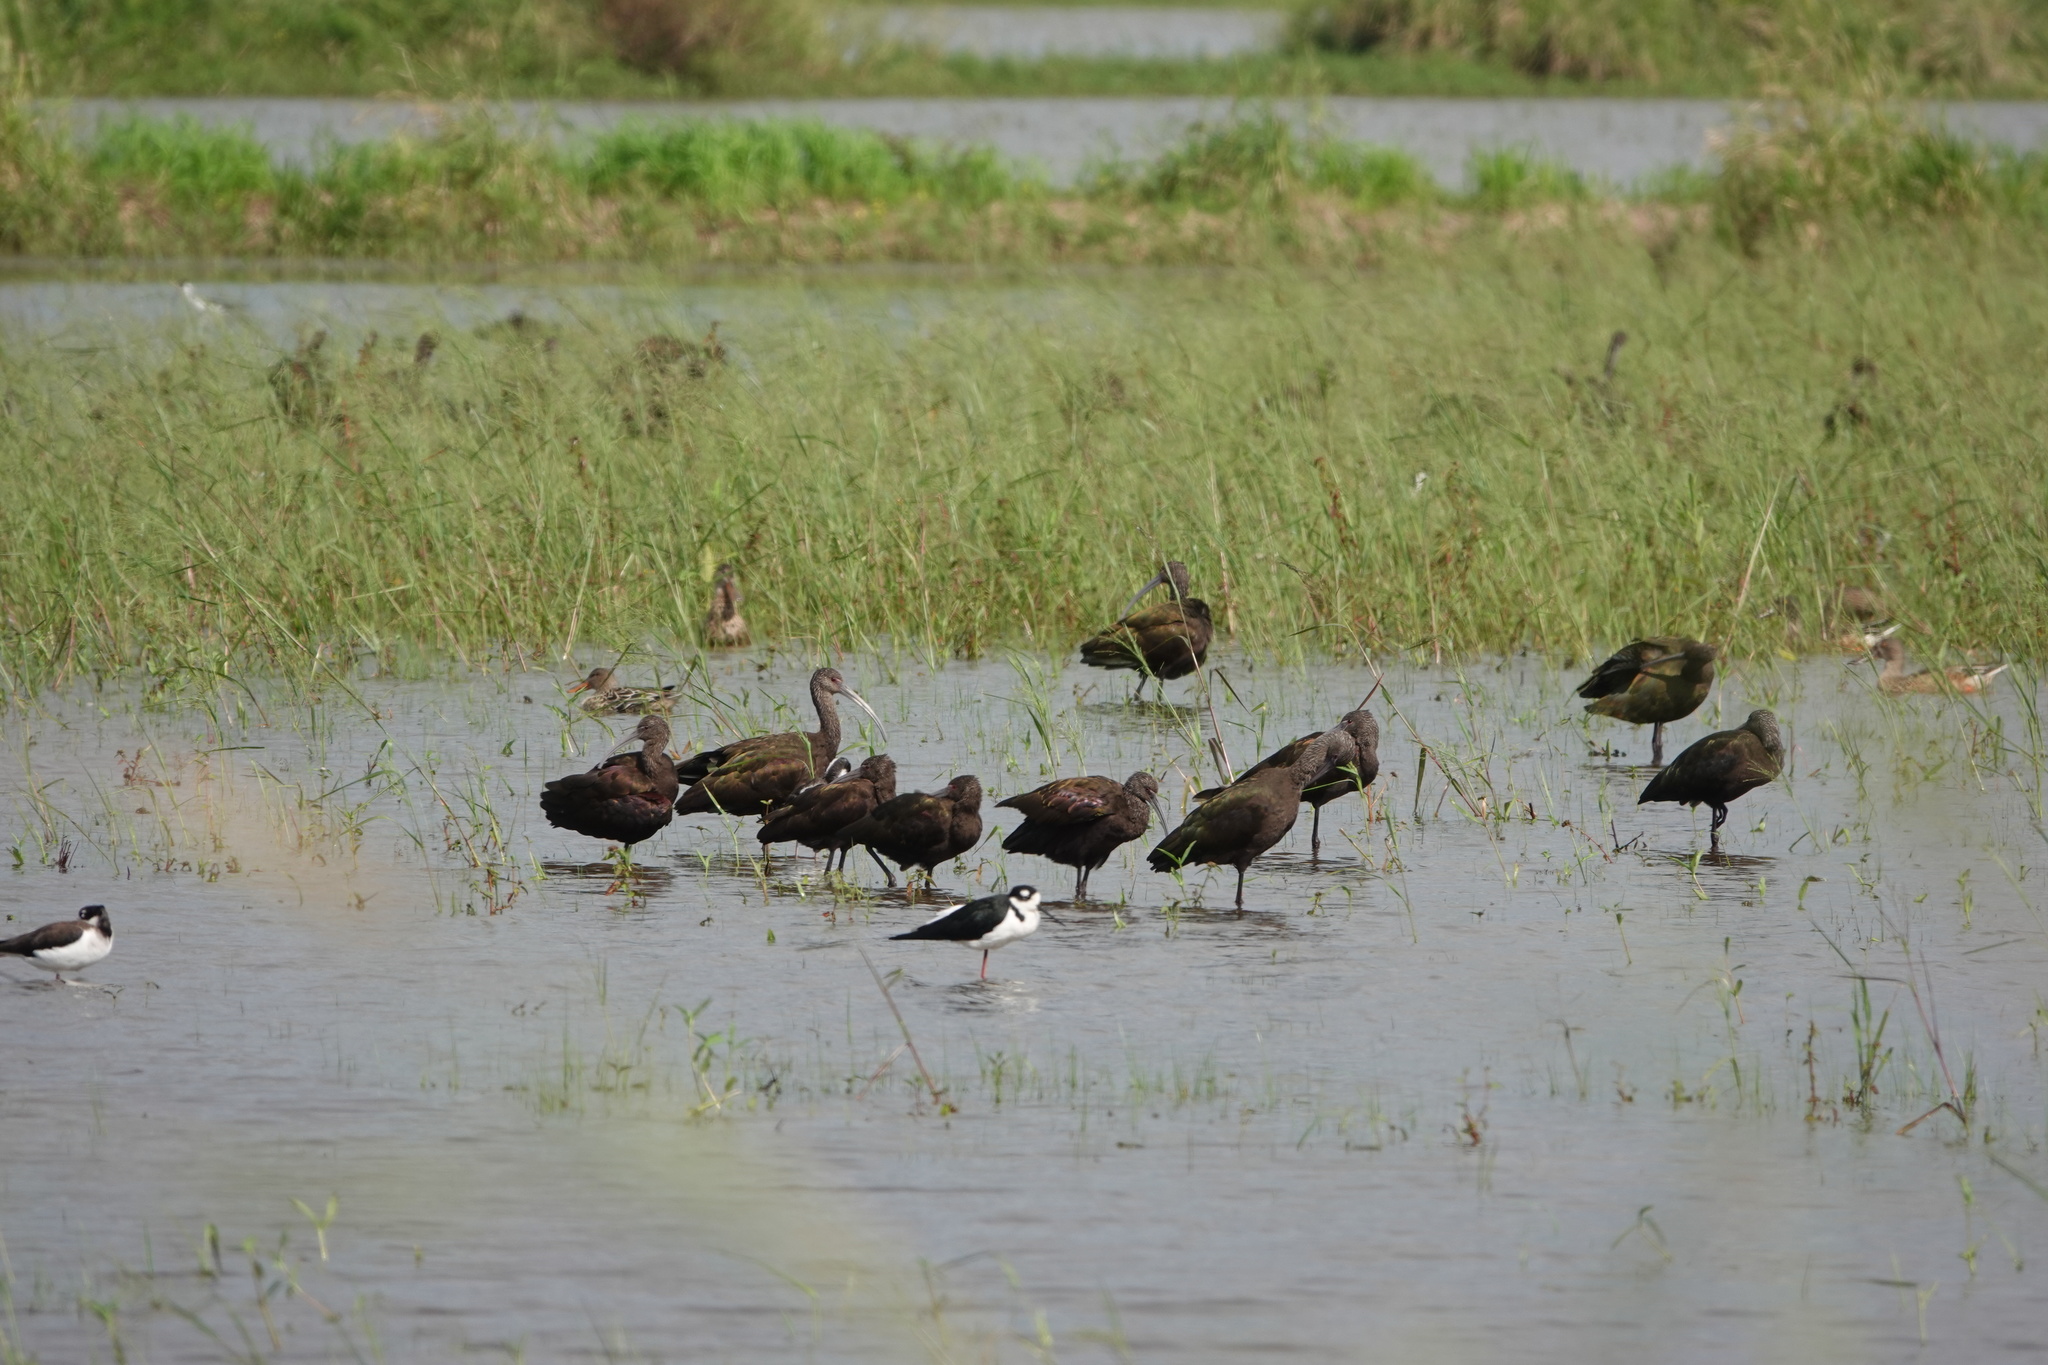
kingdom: Animalia
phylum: Chordata
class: Aves
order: Pelecaniformes
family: Threskiornithidae
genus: Plegadis
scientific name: Plegadis chihi
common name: White-faced ibis
